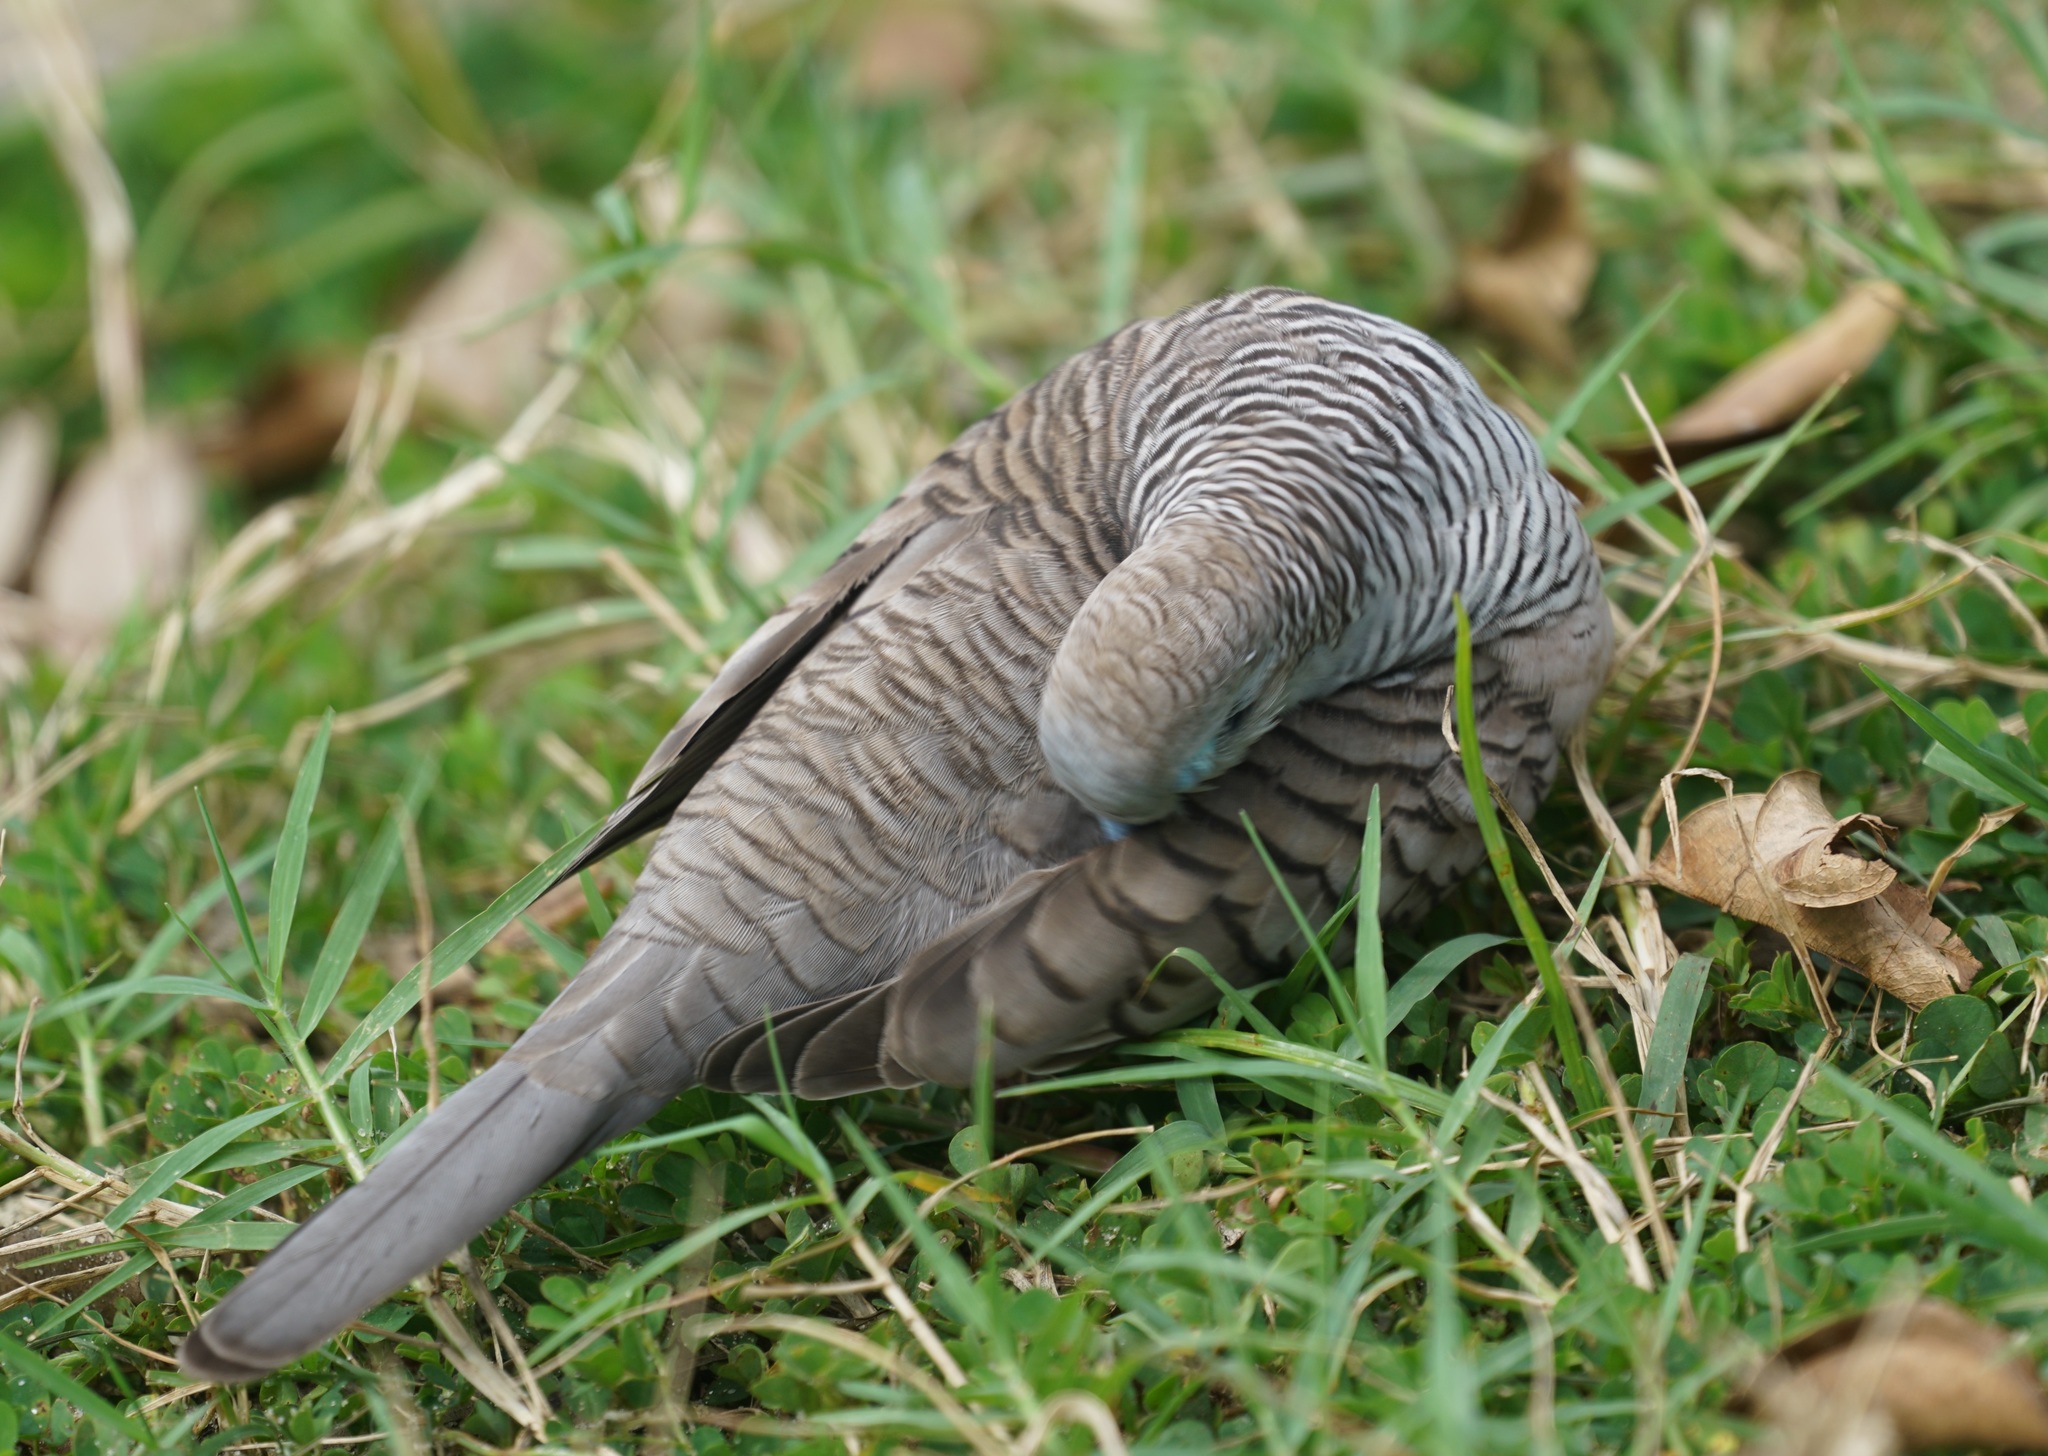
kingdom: Animalia
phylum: Chordata
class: Aves
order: Columbiformes
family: Columbidae
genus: Geopelia
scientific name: Geopelia placida
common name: Peaceful dove
